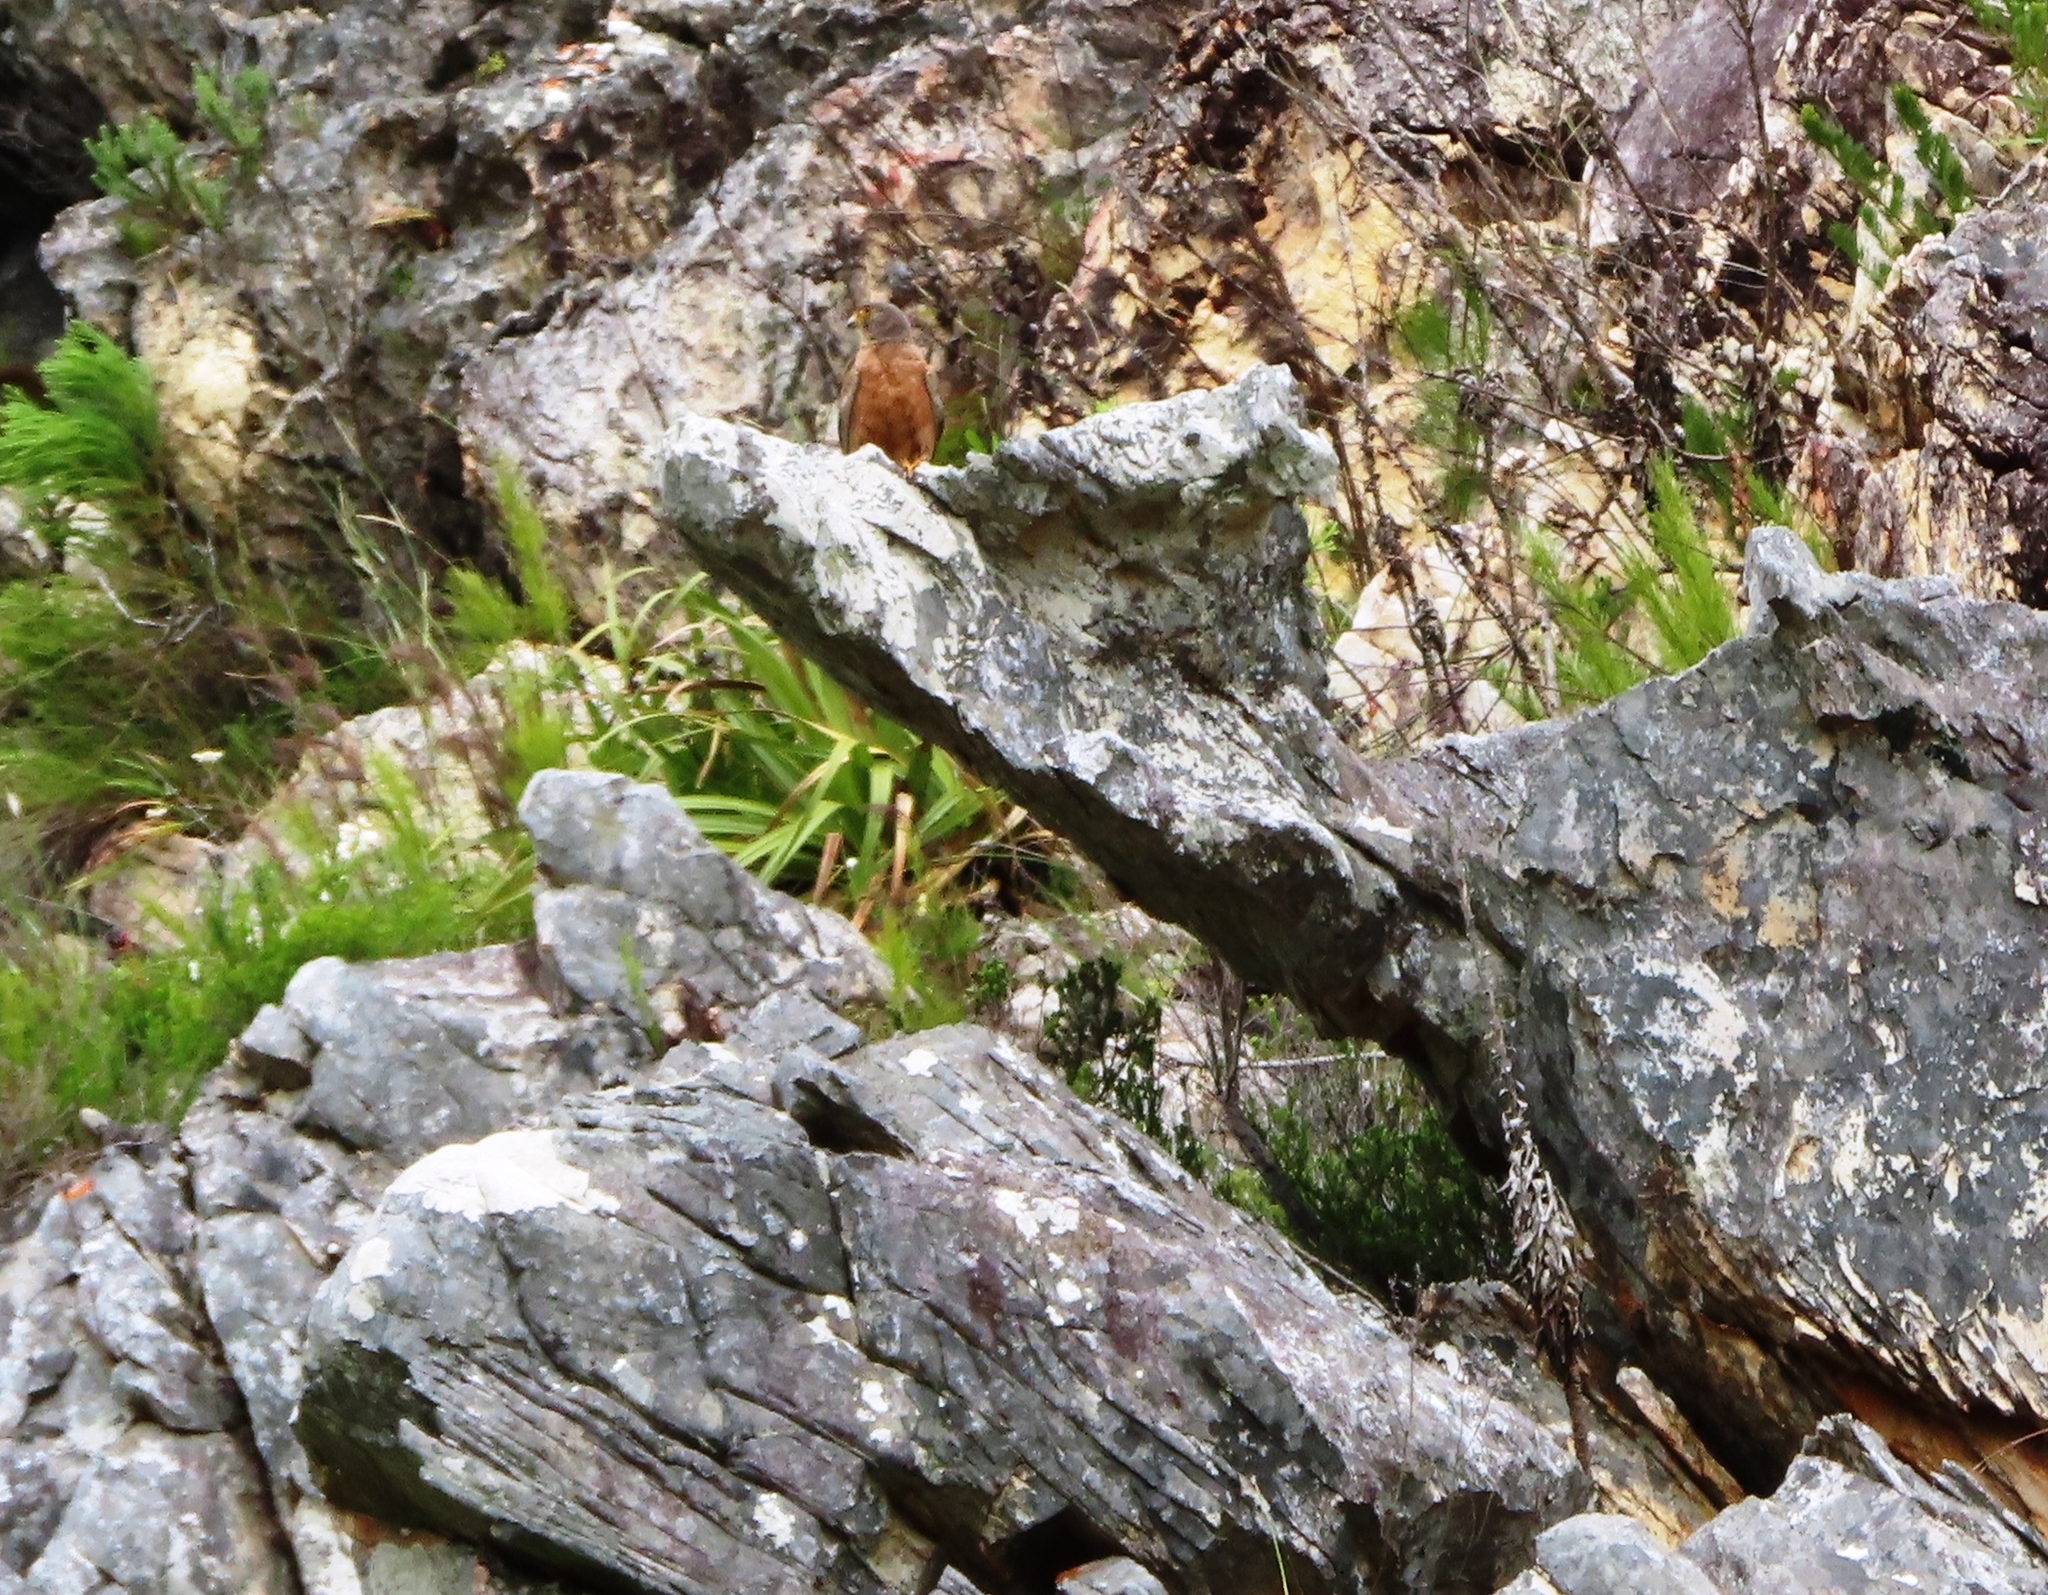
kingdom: Animalia
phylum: Chordata
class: Aves
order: Falconiformes
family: Falconidae
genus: Falco
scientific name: Falco rupicolus
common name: Rock kestrel
